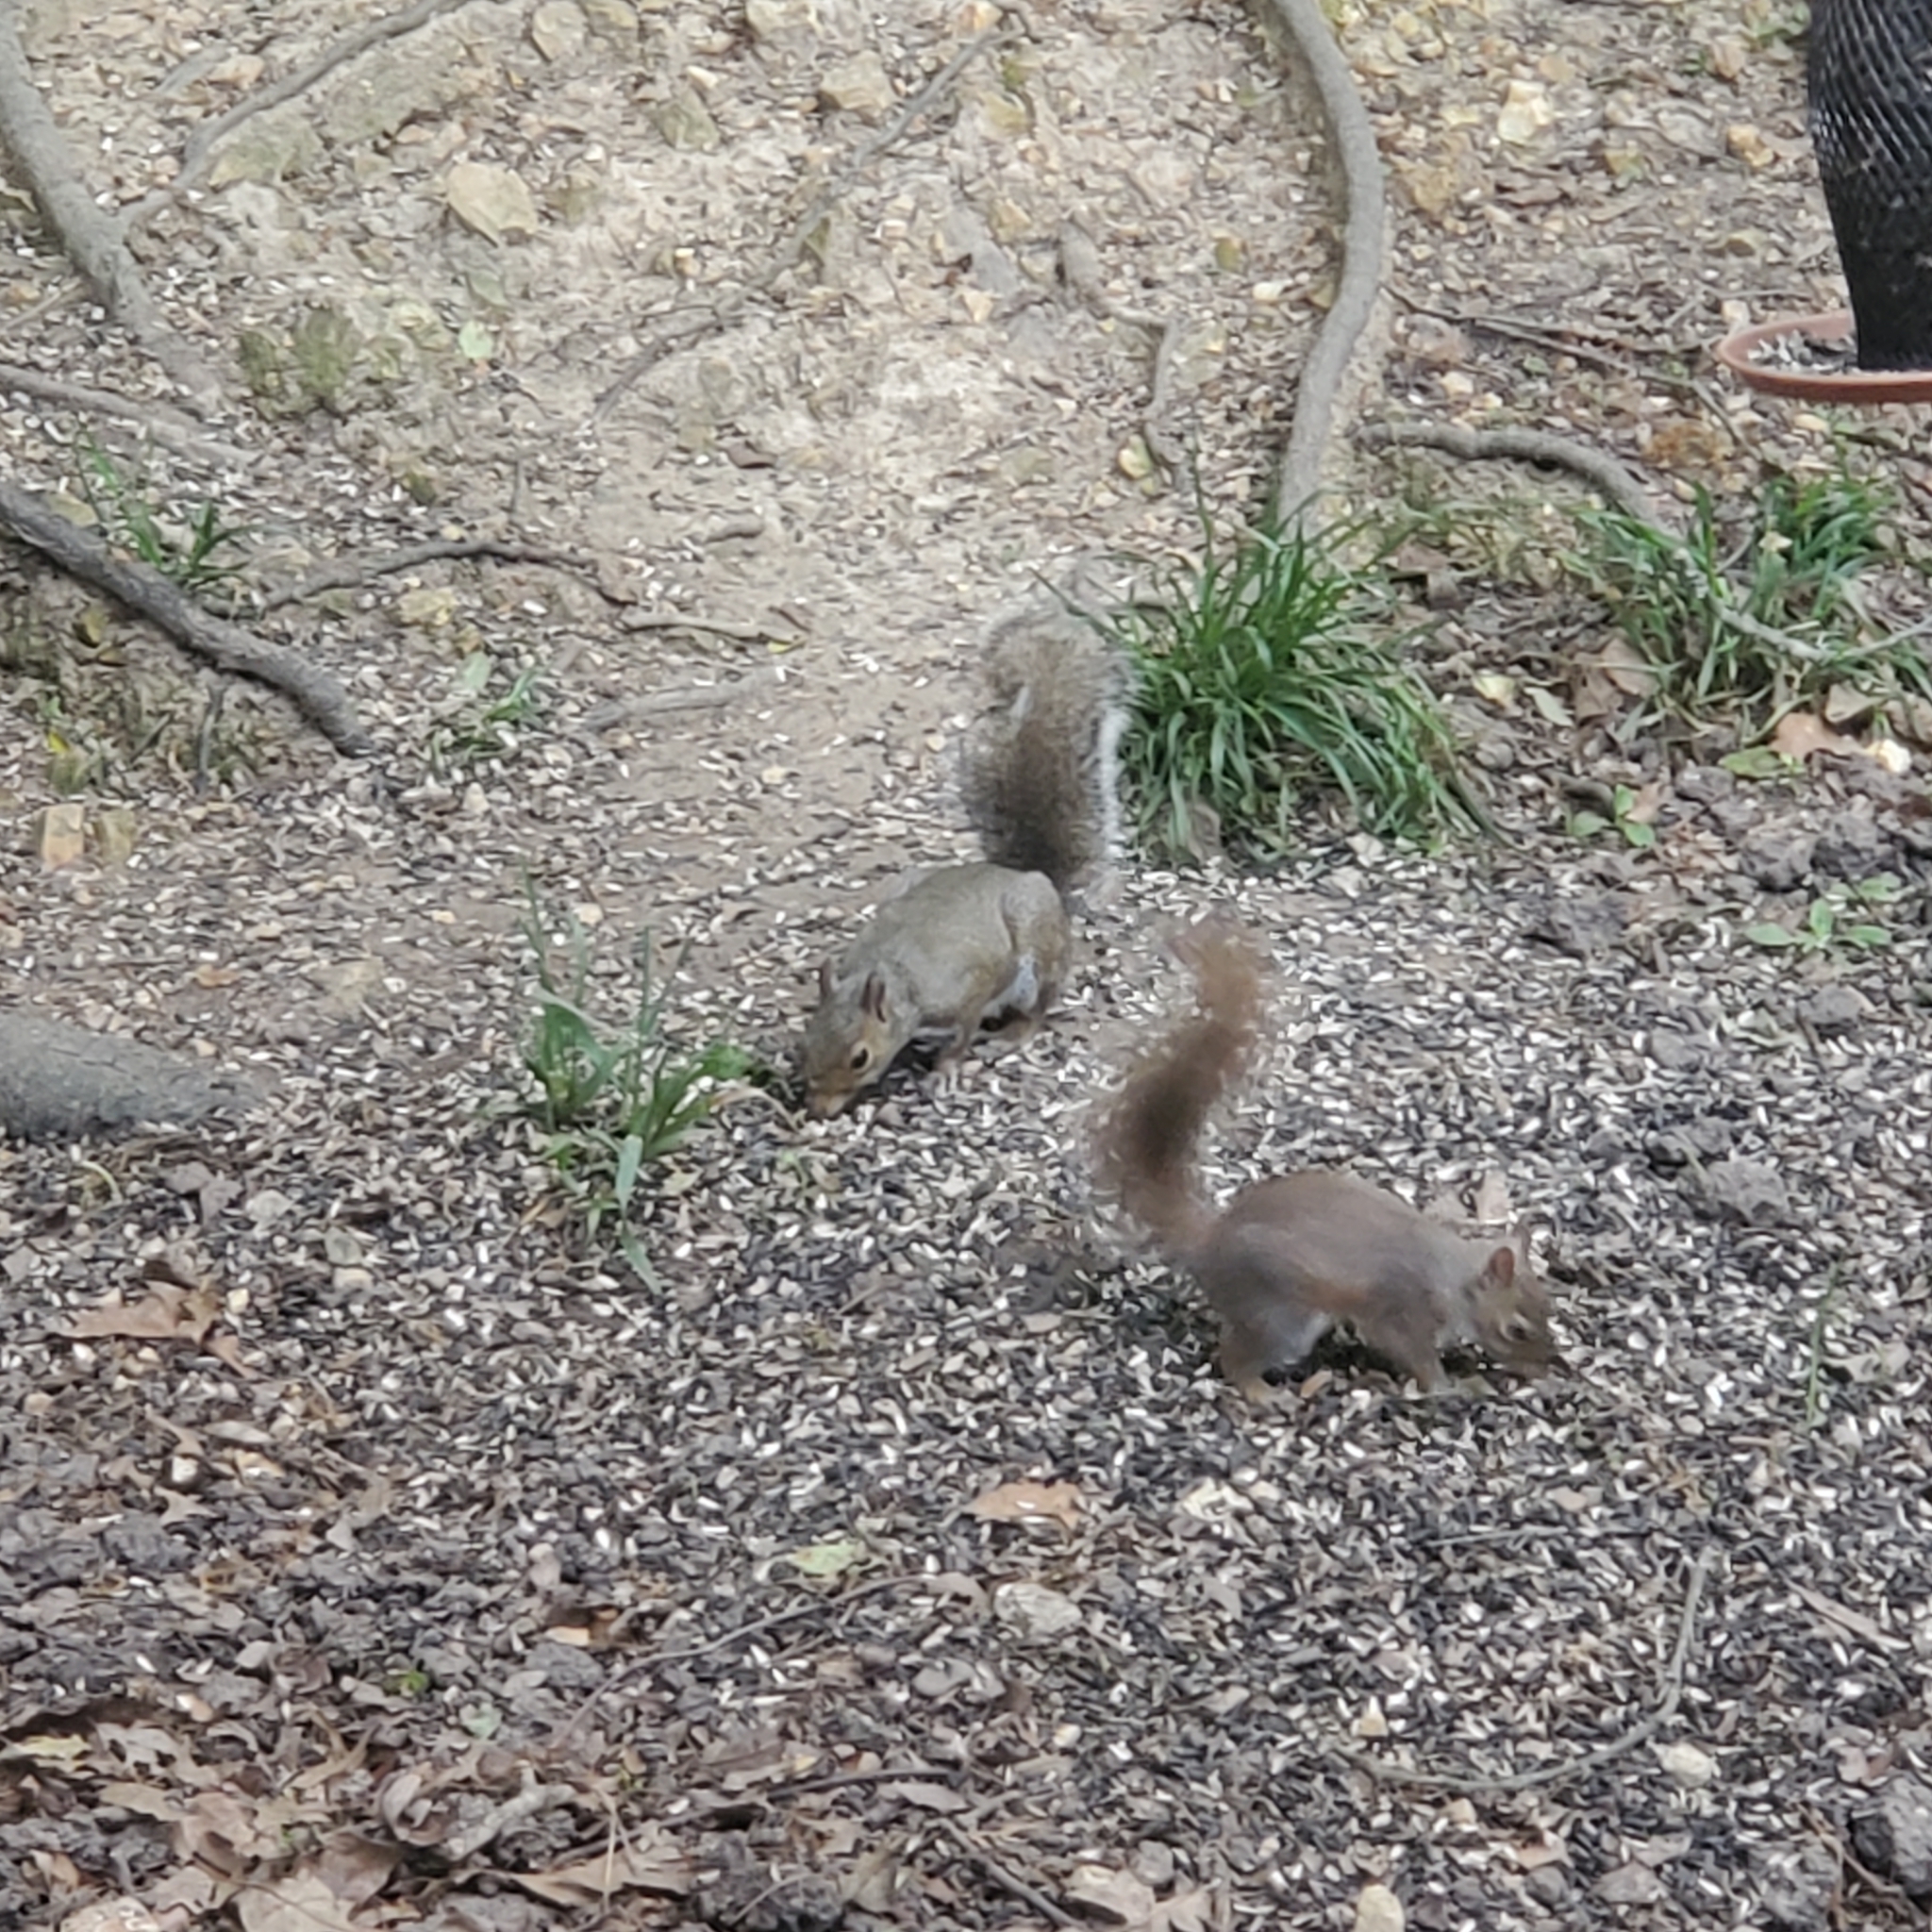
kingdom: Animalia
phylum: Chordata
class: Mammalia
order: Rodentia
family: Sciuridae
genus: Sciurus
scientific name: Sciurus carolinensis
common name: Eastern gray squirrel
